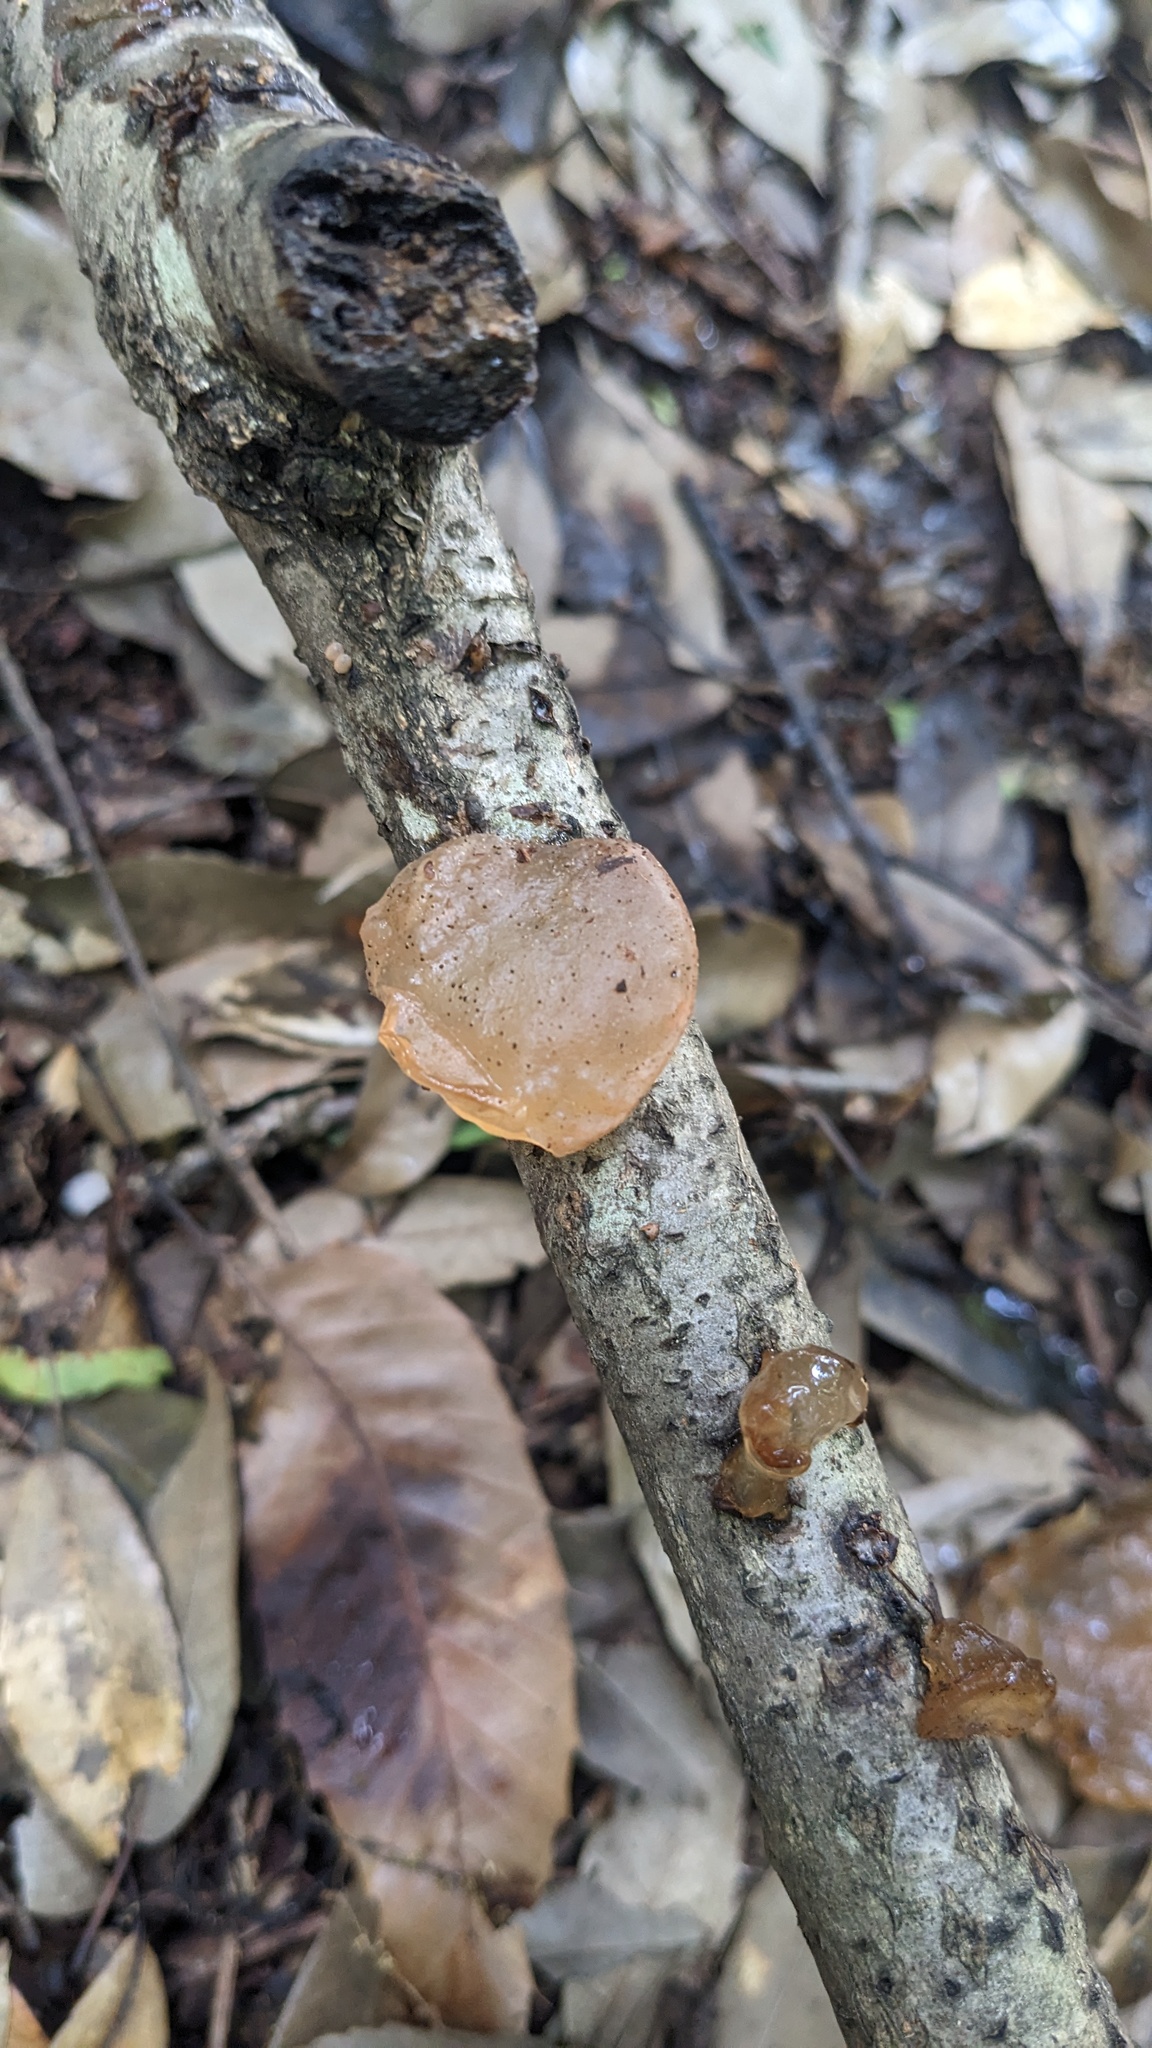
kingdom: Fungi
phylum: Basidiomycota
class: Agaricomycetes
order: Auriculariales
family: Auriculariaceae
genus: Exidia
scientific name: Exidia uvapassa
